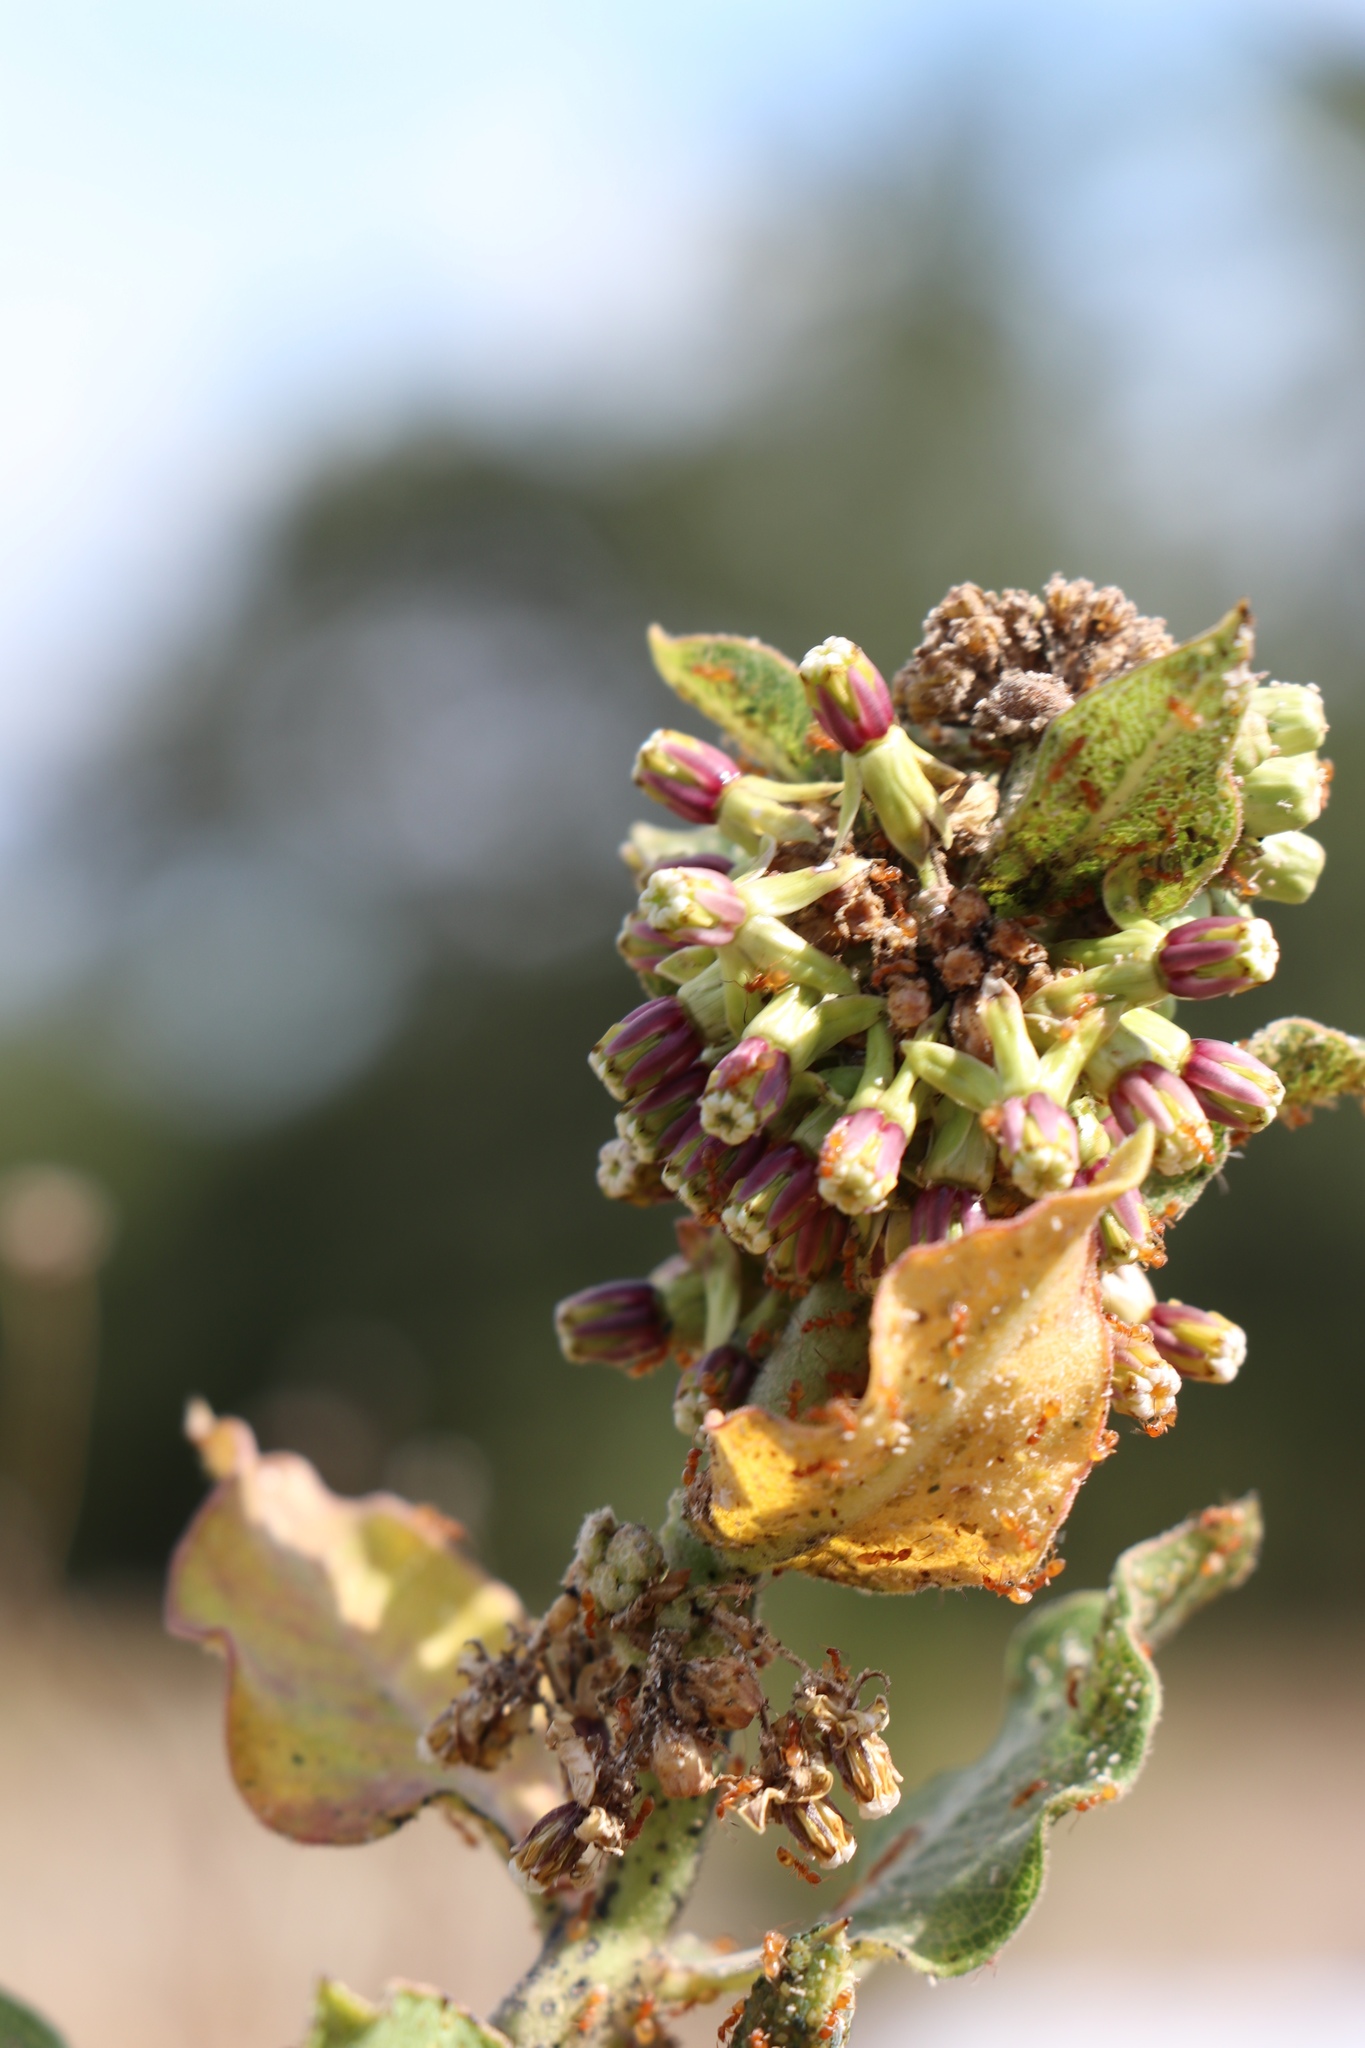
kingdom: Plantae
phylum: Tracheophyta
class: Magnoliopsida
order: Gentianales
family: Apocynaceae
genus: Asclepias
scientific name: Asclepias viridiflora
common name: Green comet milkweed
